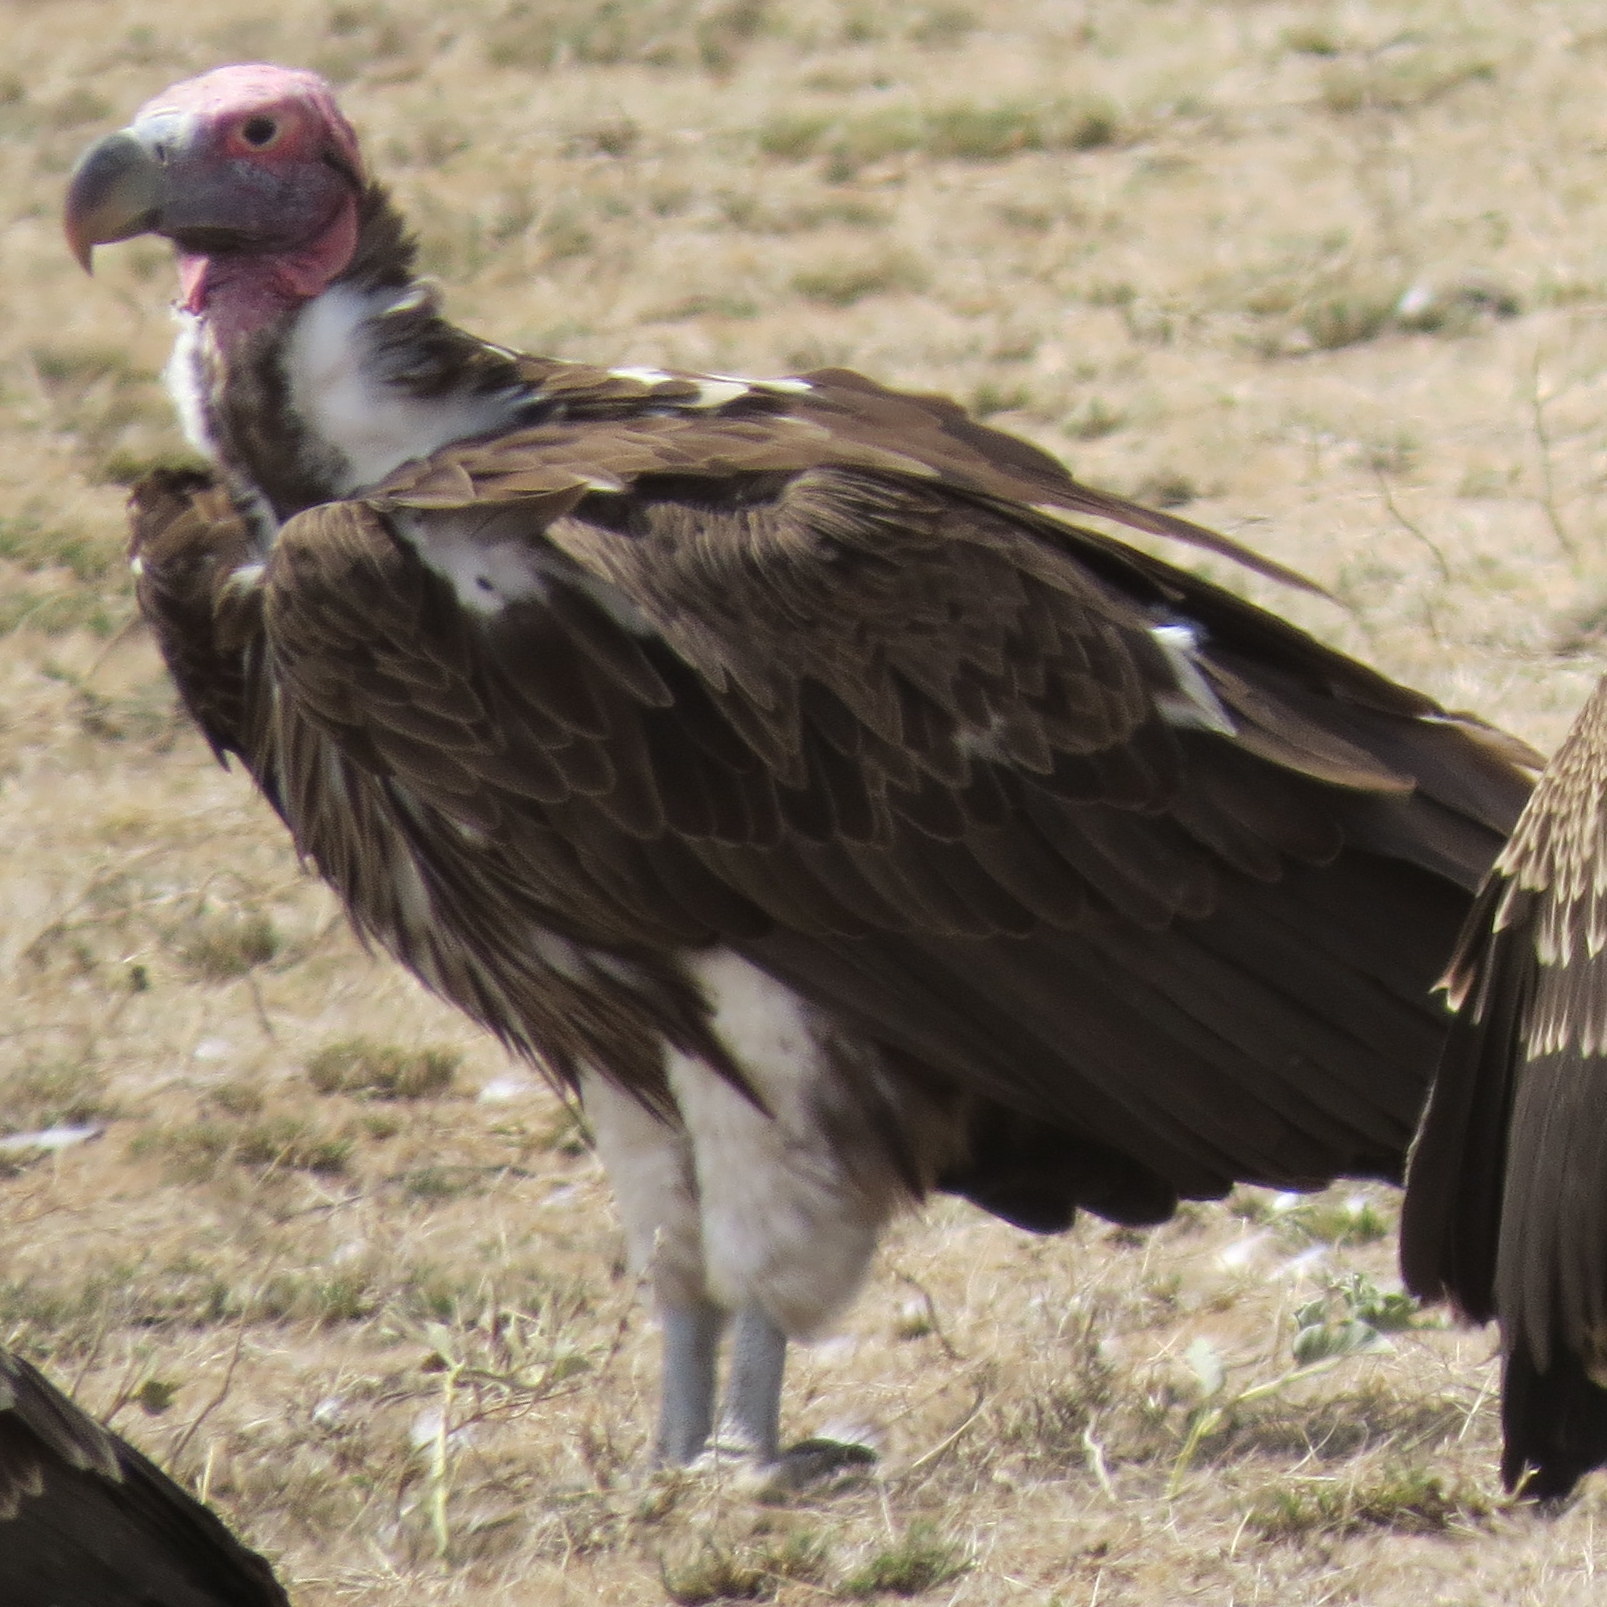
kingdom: Animalia
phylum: Chordata
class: Aves
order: Accipitriformes
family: Accipitridae
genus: Torgos
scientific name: Torgos tracheliotos
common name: Lappet-faced vulture
